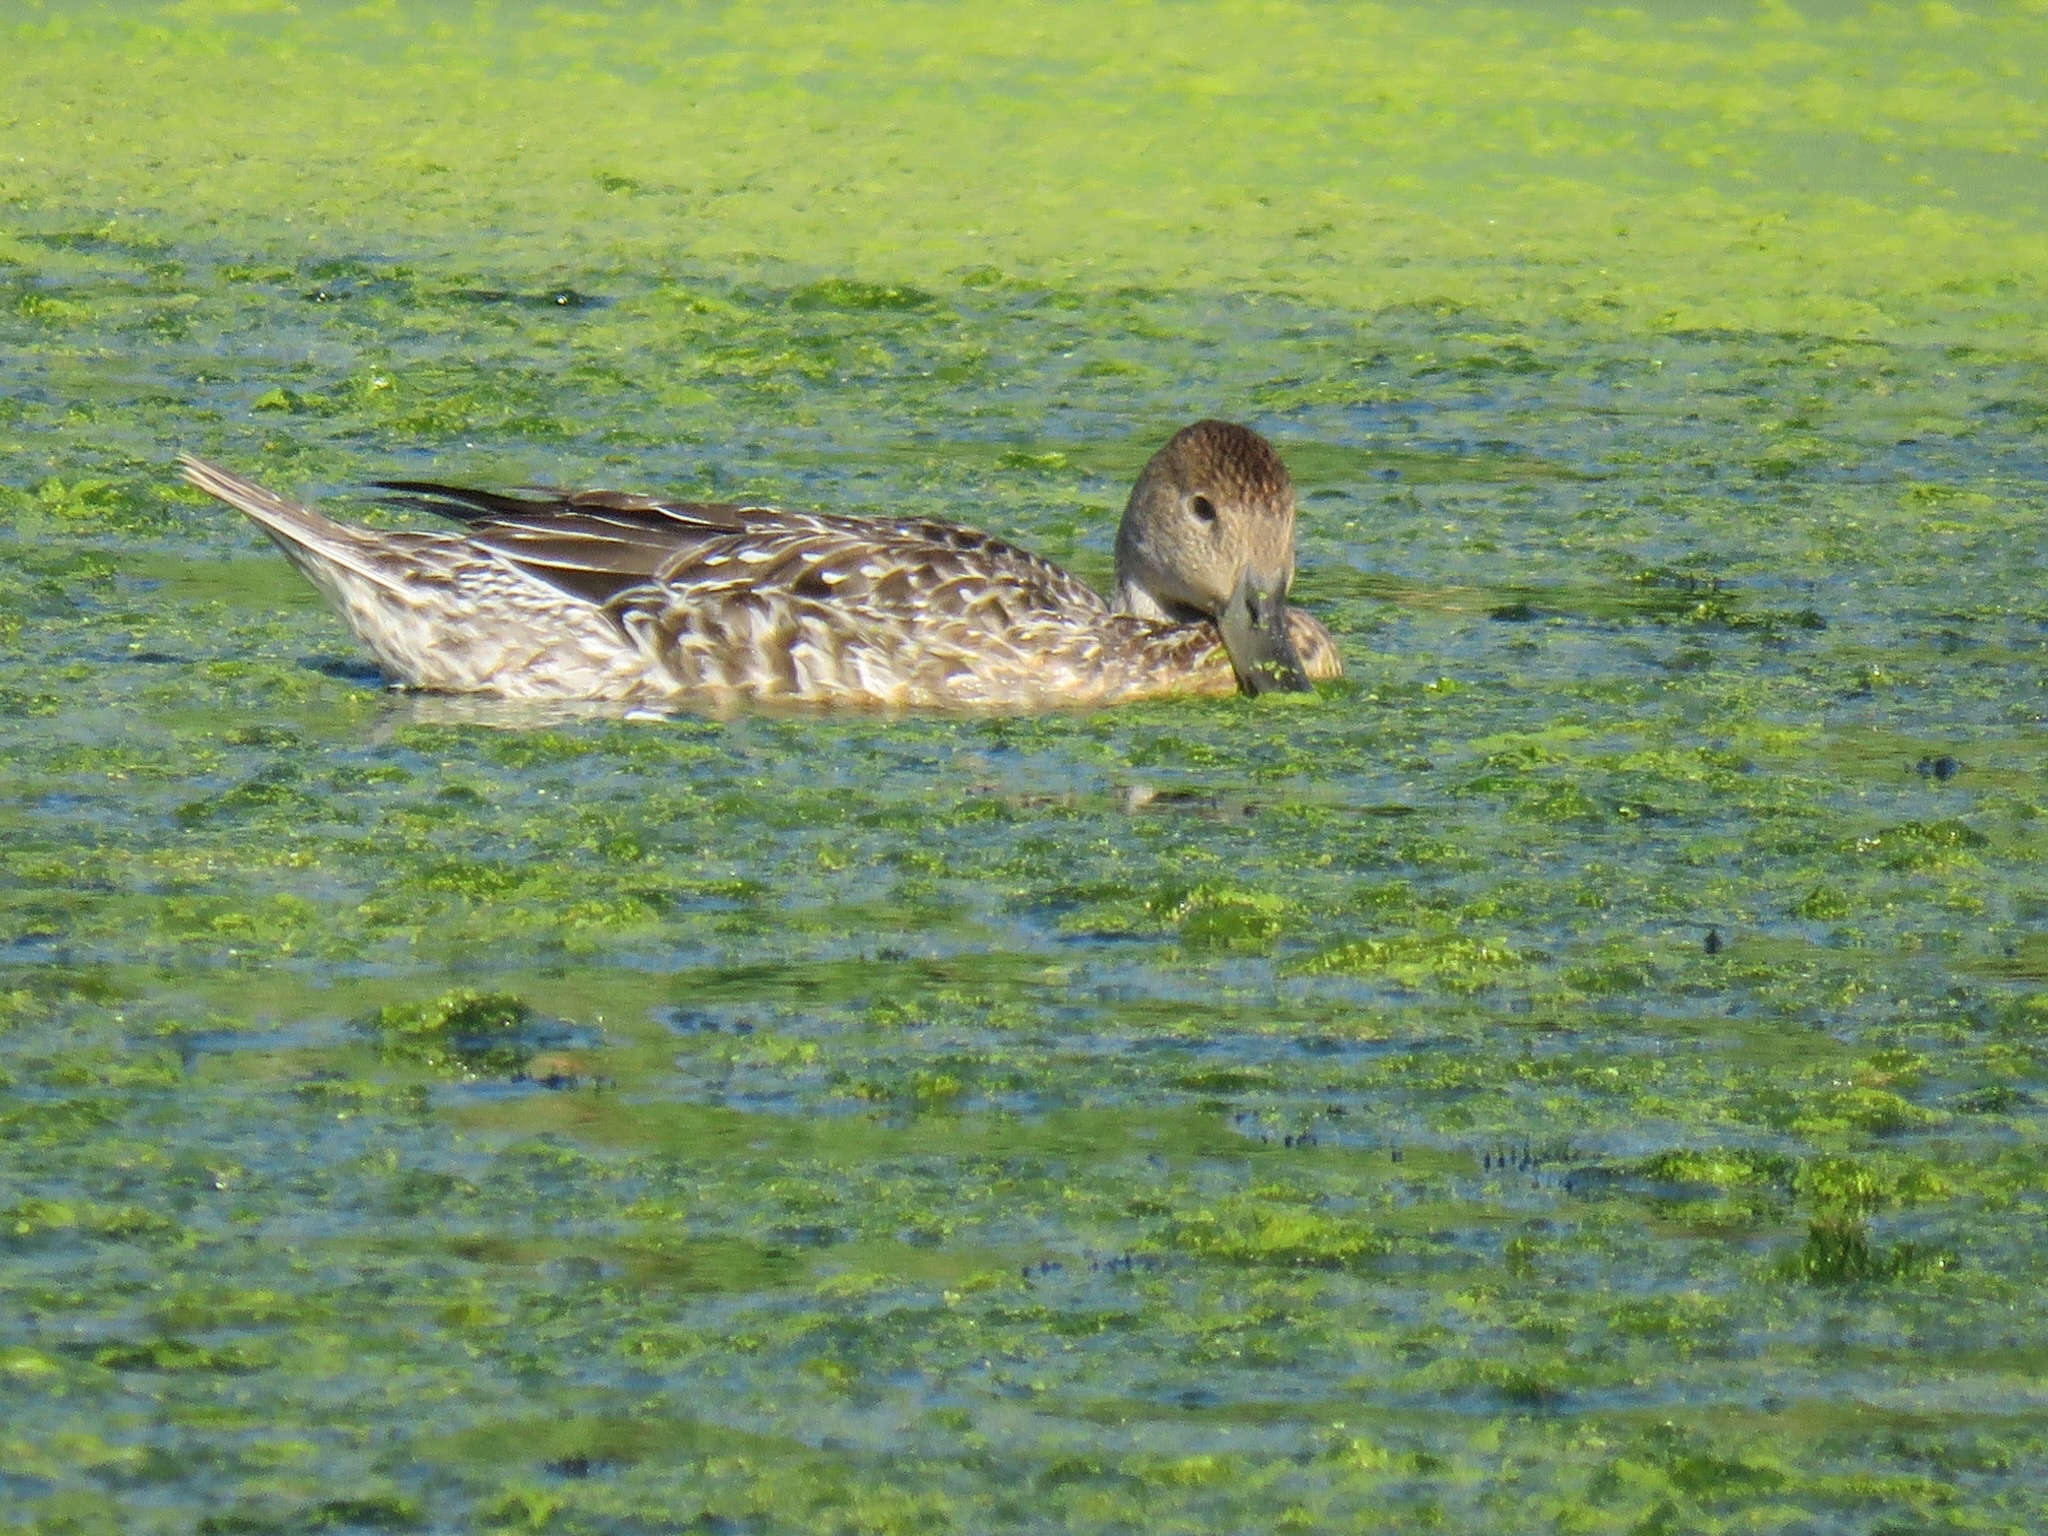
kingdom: Animalia
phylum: Chordata
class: Aves
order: Anseriformes
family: Anatidae
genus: Anas
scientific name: Anas acuta
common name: Northern pintail
